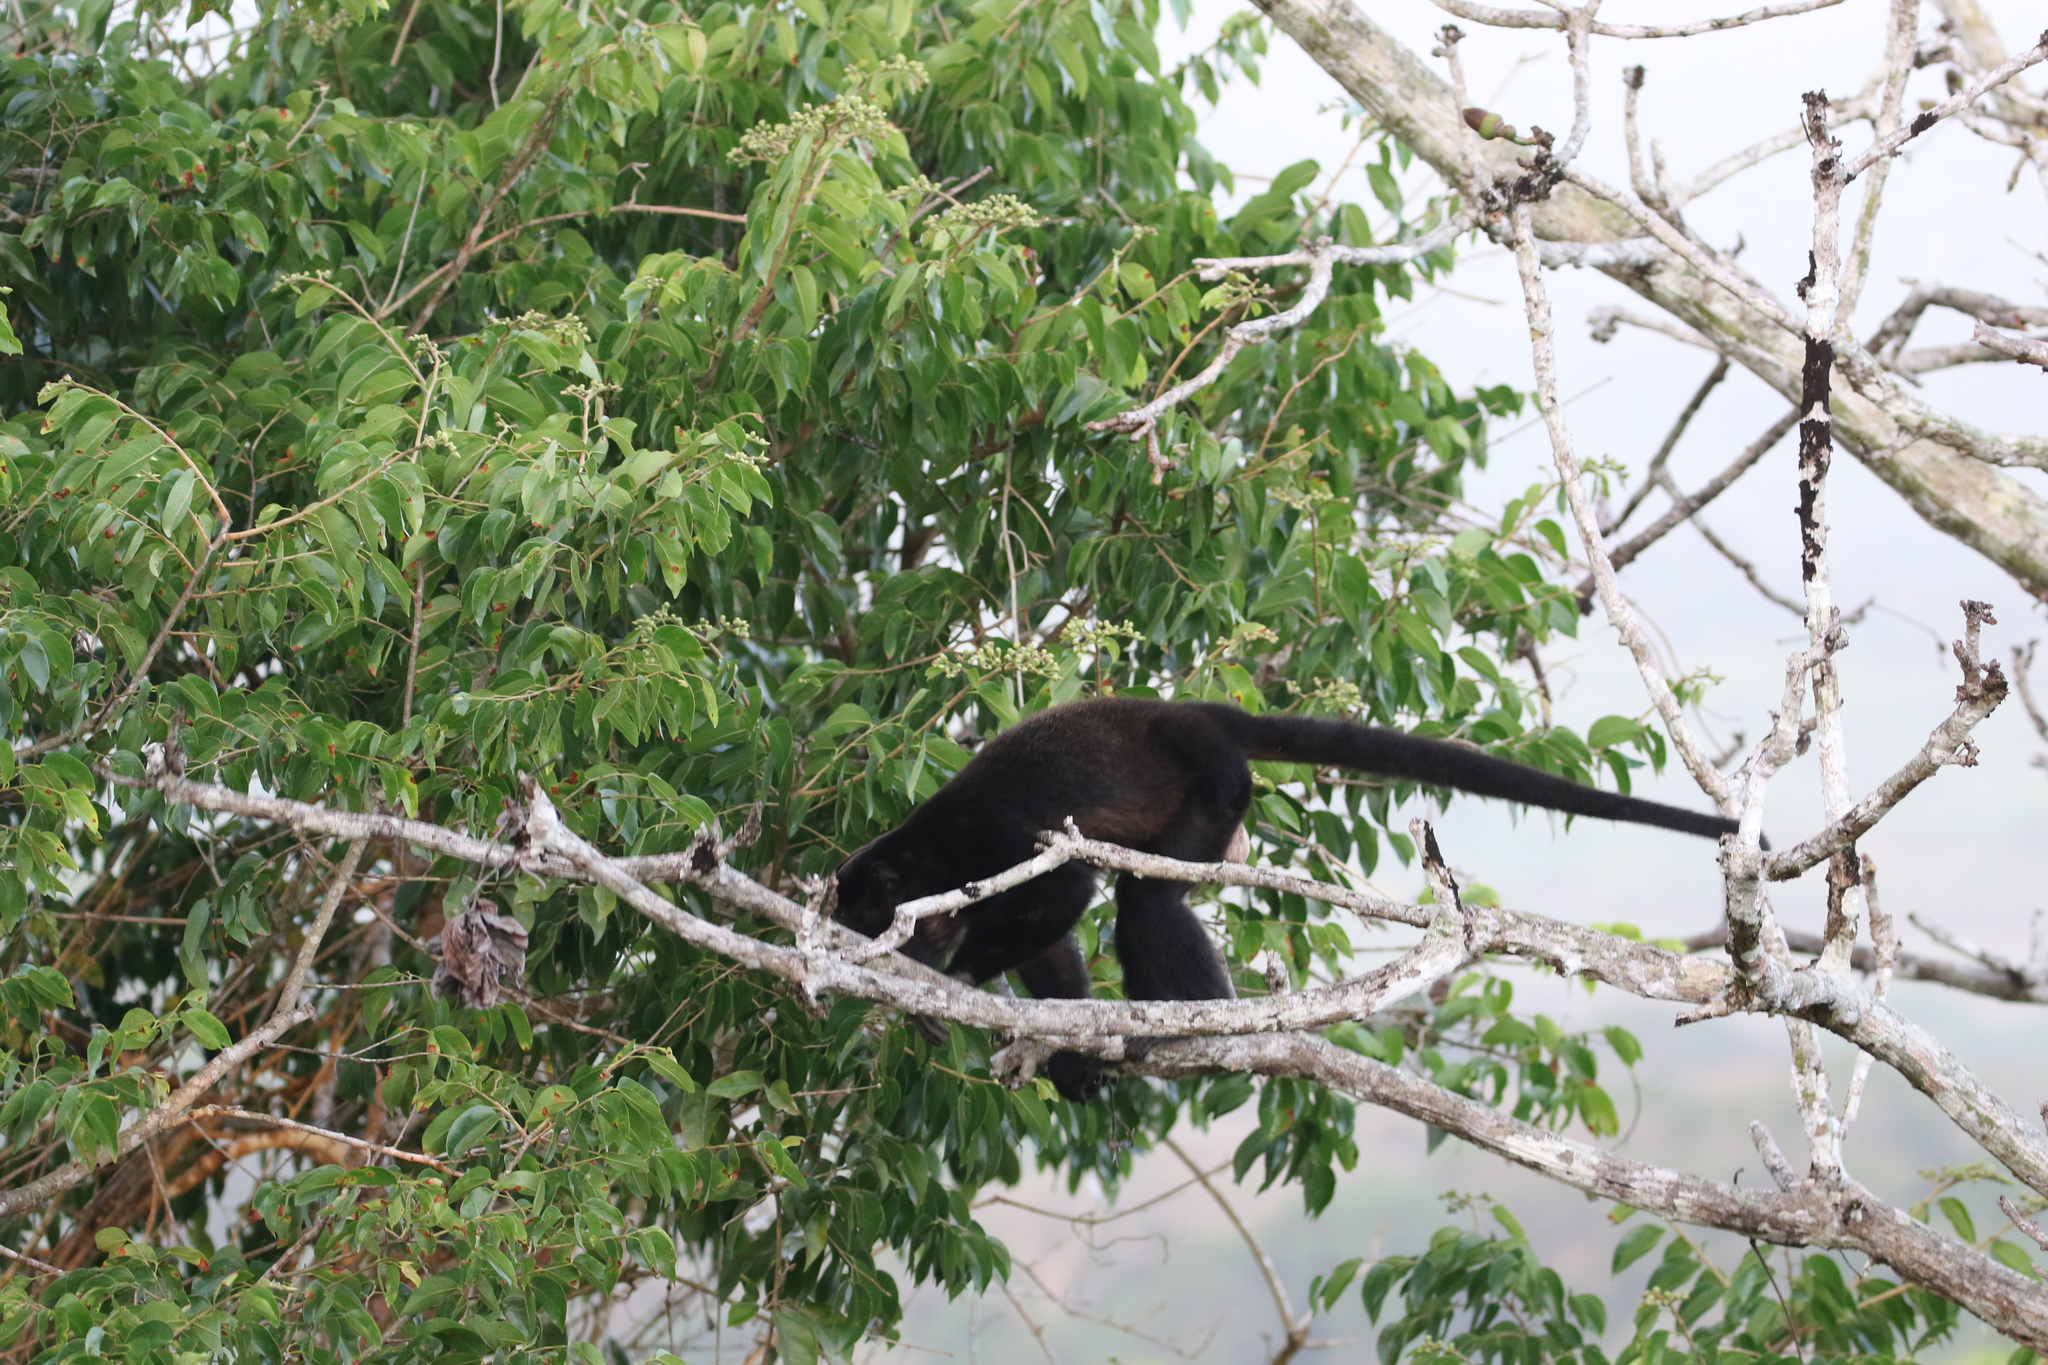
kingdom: Animalia
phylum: Chordata
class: Mammalia
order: Primates
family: Atelidae
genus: Alouatta
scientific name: Alouatta palliata
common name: Mantled howler
